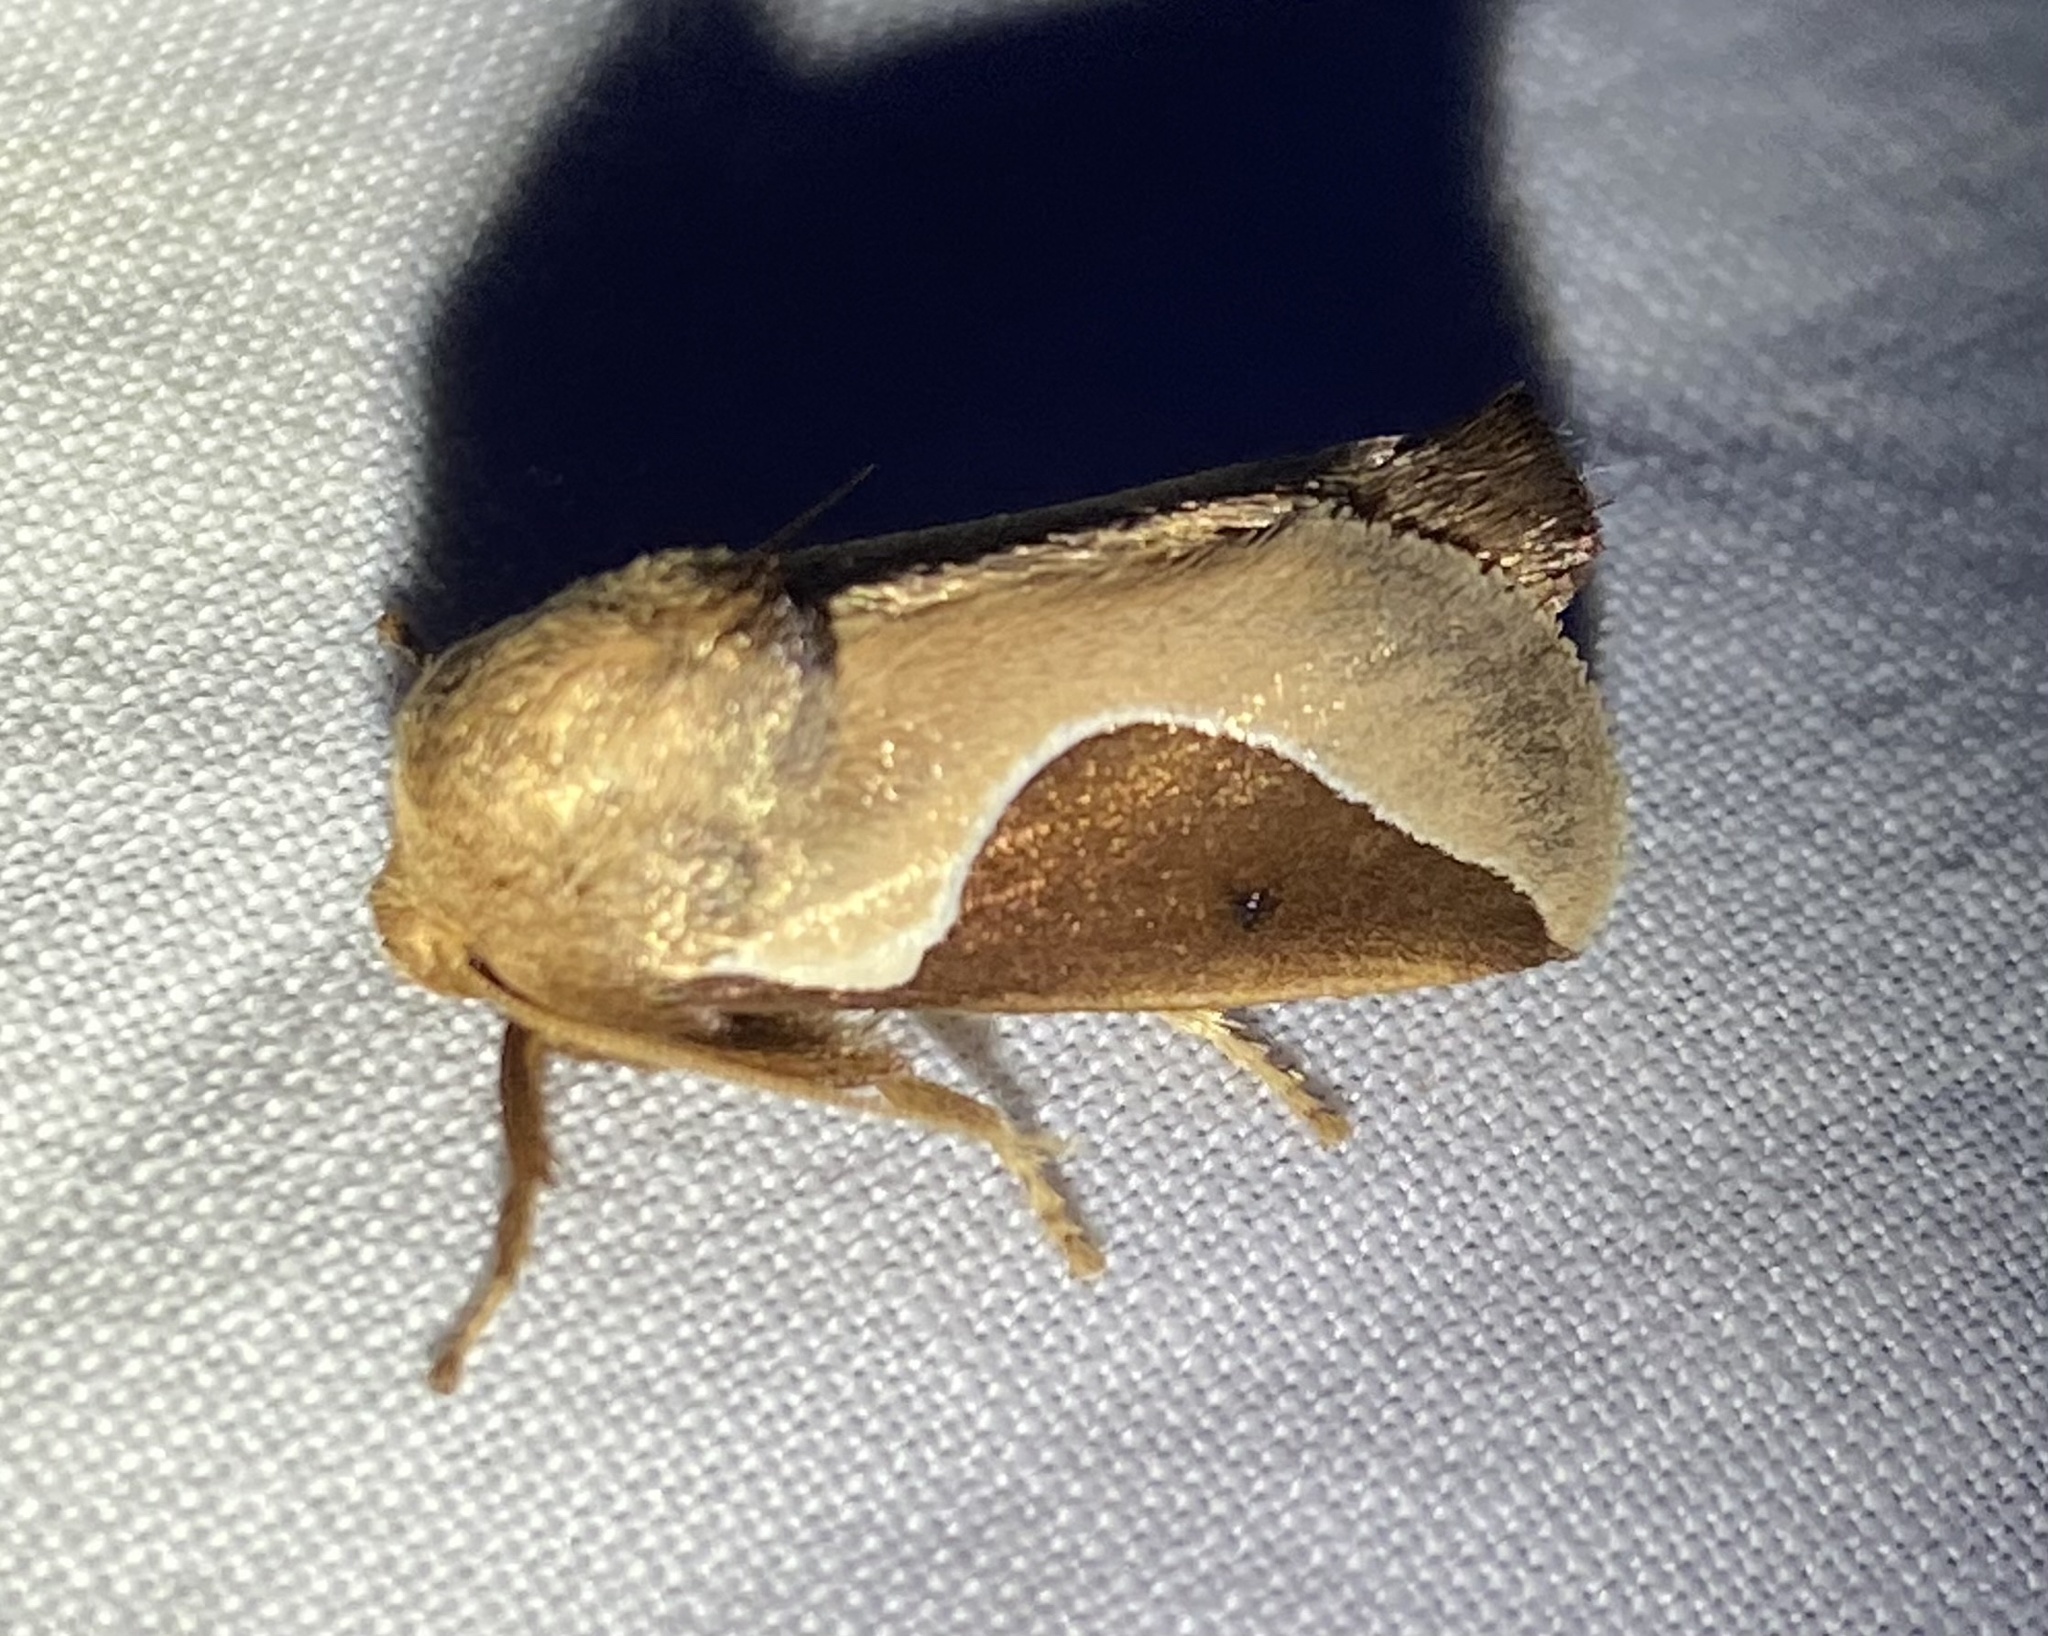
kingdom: Animalia
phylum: Arthropoda
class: Insecta
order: Lepidoptera
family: Limacodidae
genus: Prolimacodes
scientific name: Prolimacodes badia
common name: Skiff moth
